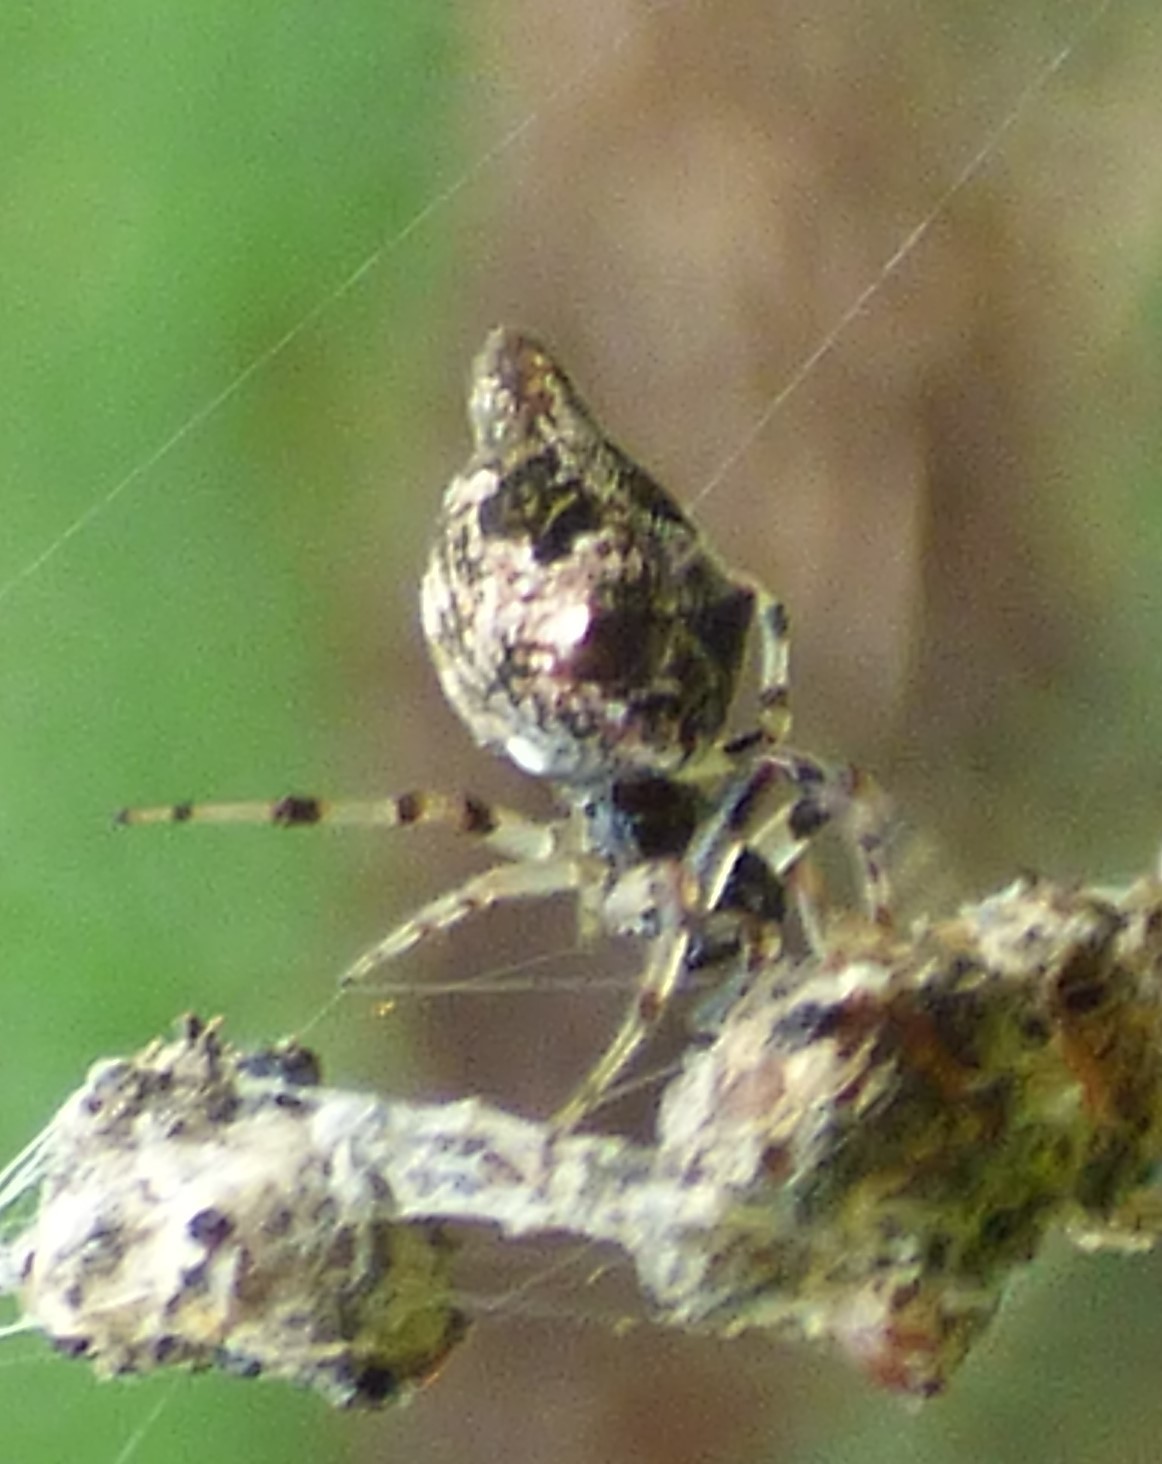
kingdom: Animalia
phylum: Arthropoda
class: Arachnida
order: Araneae
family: Araneidae
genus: Cyclosa
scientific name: Cyclosa turbinata
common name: Orb weavers
